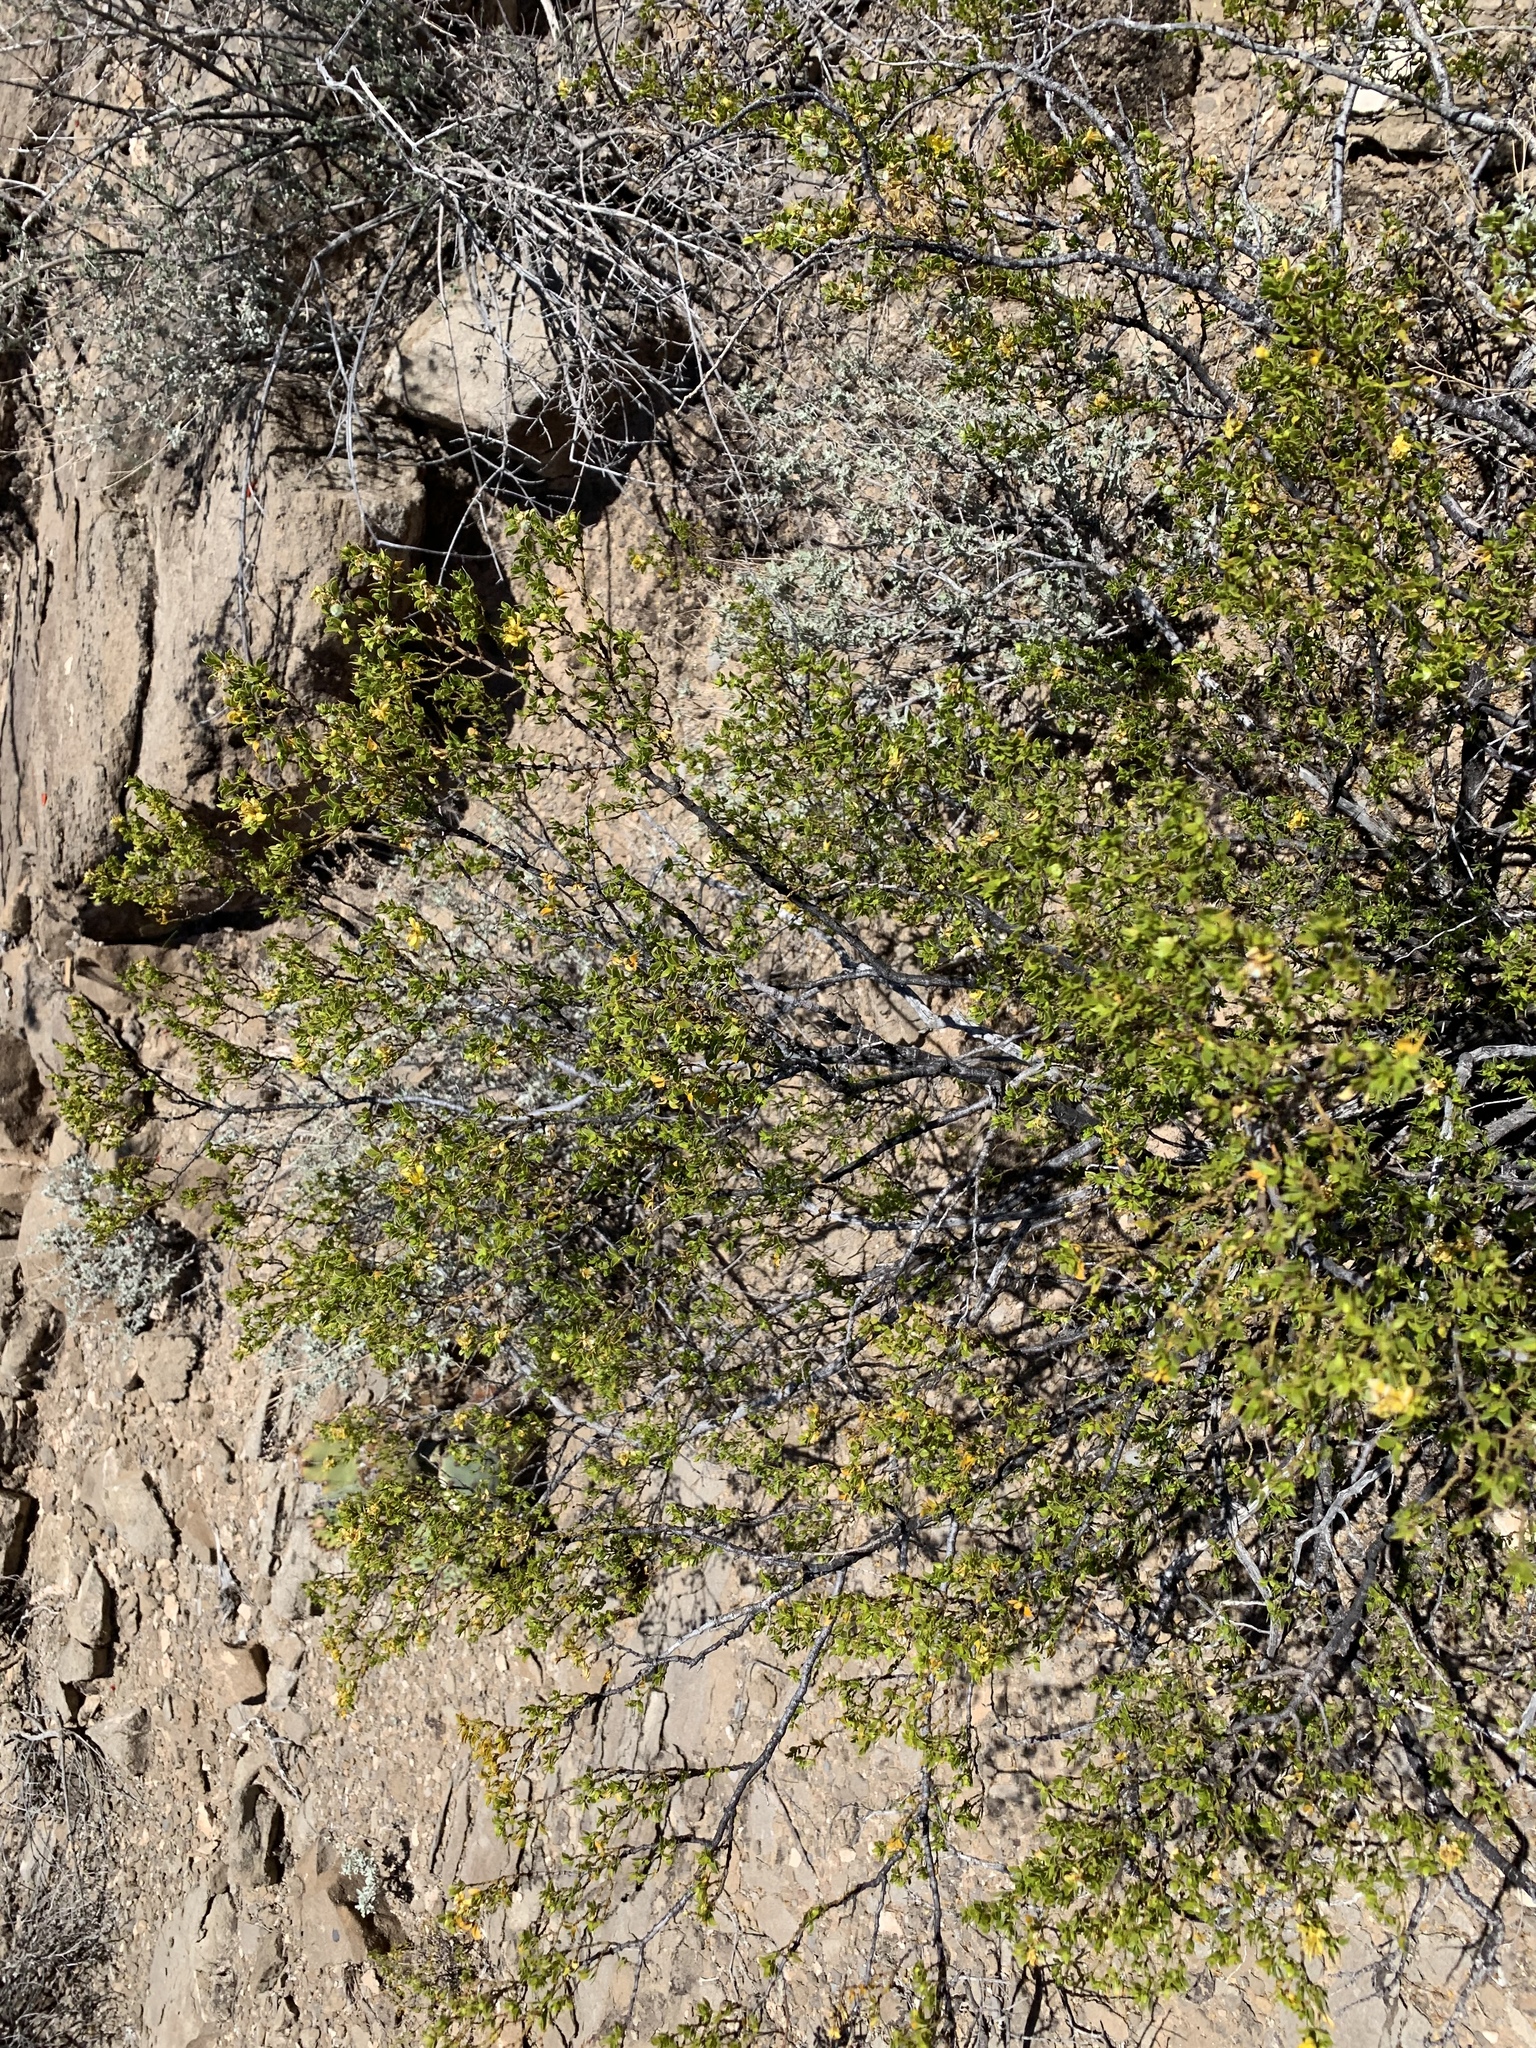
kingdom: Plantae
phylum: Tracheophyta
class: Magnoliopsida
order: Zygophyllales
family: Zygophyllaceae
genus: Larrea
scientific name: Larrea tridentata
